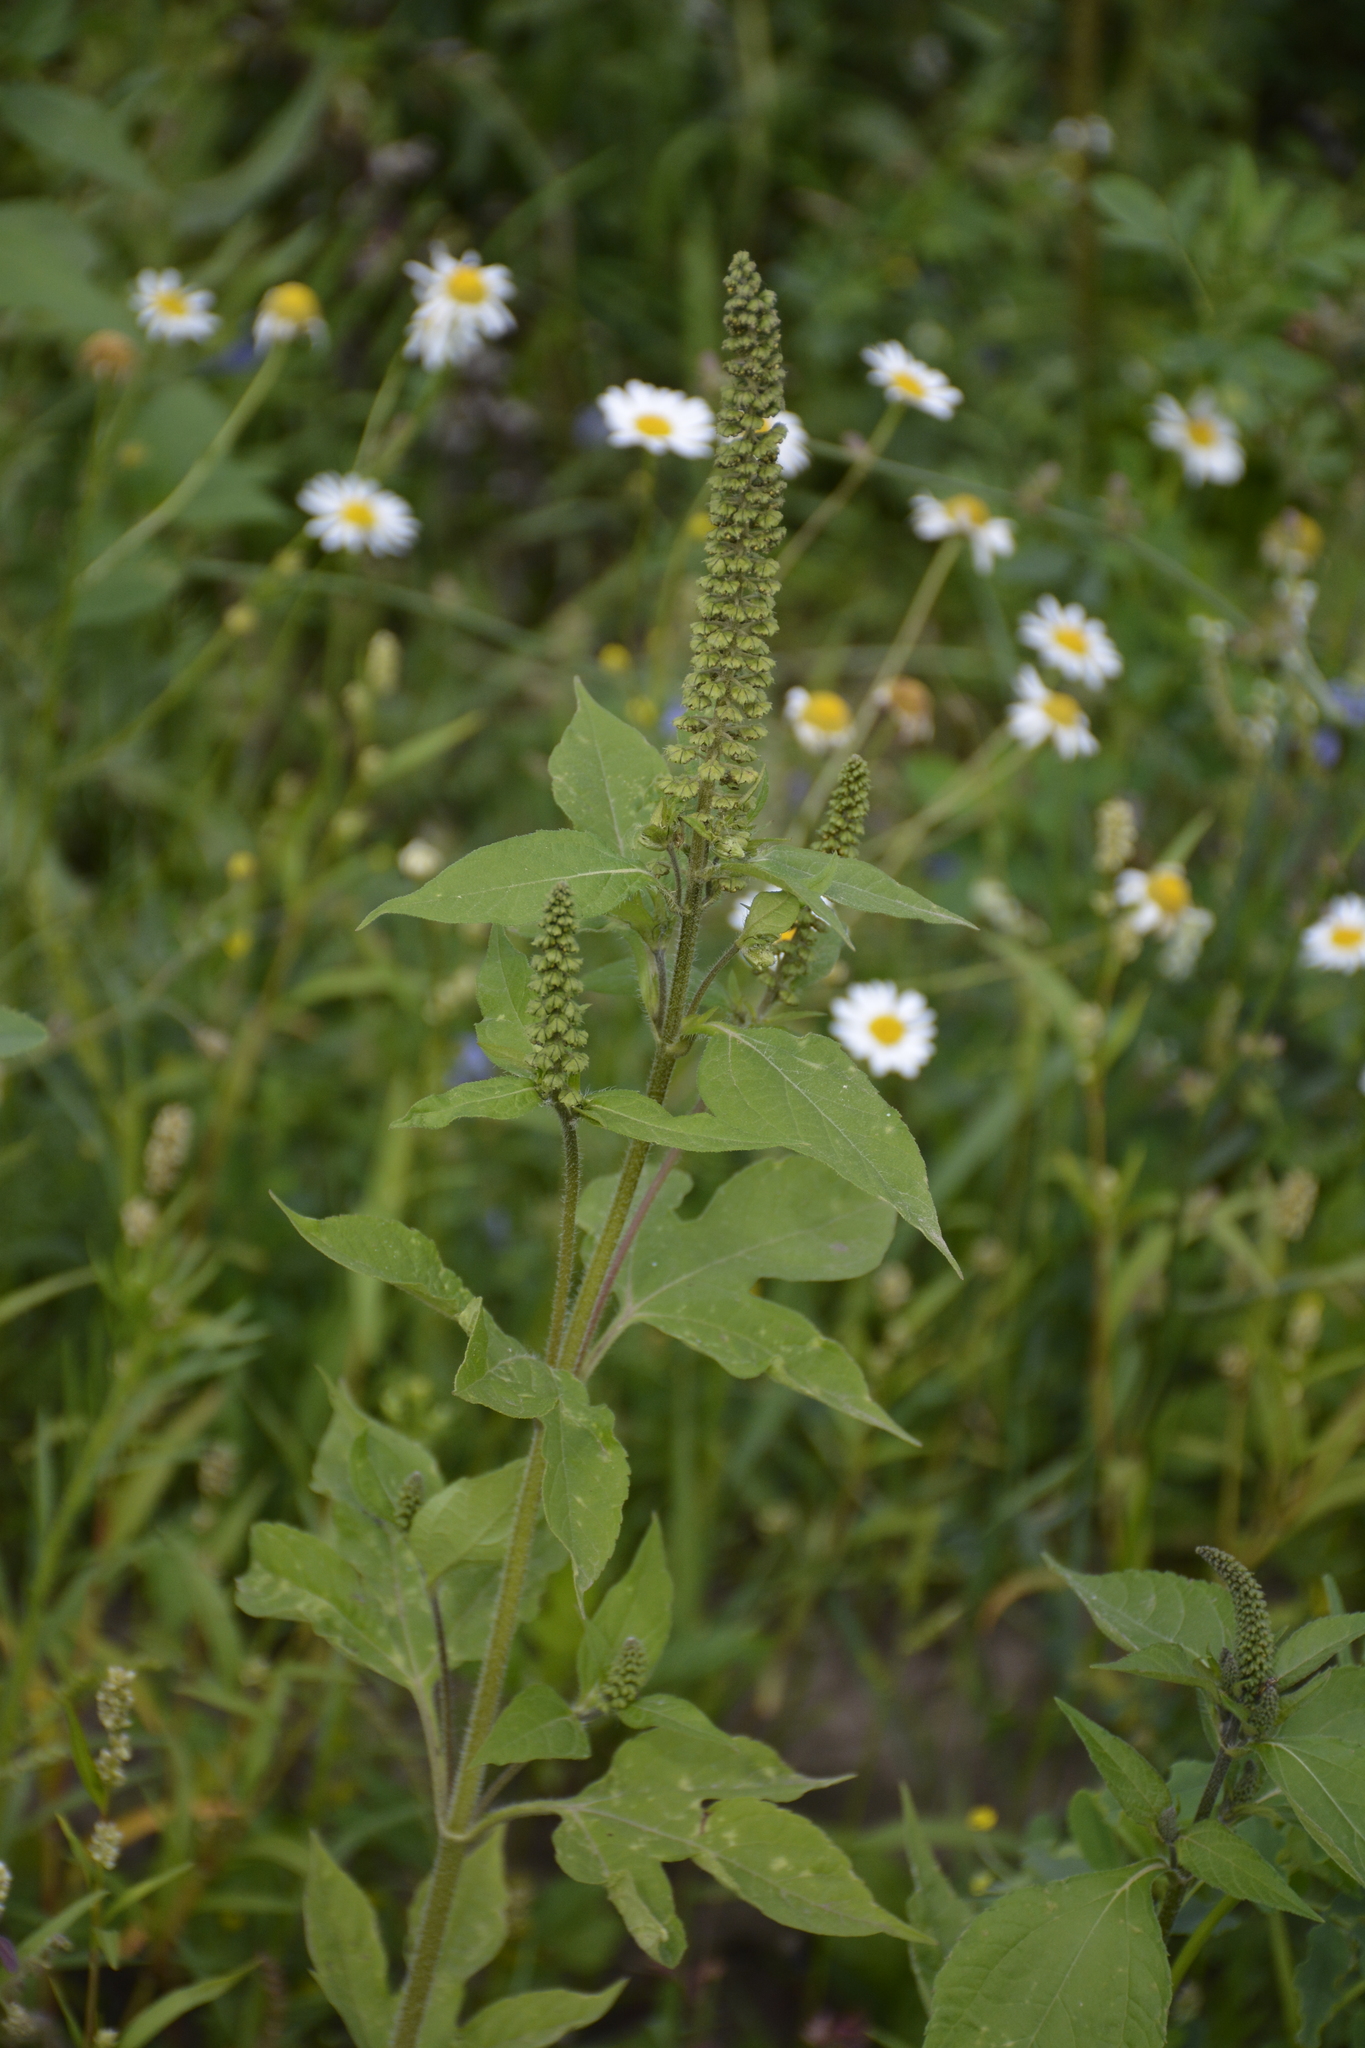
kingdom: Plantae
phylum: Tracheophyta
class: Magnoliopsida
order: Asterales
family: Asteraceae
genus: Ambrosia
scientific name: Ambrosia trifida
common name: Giant ragweed
